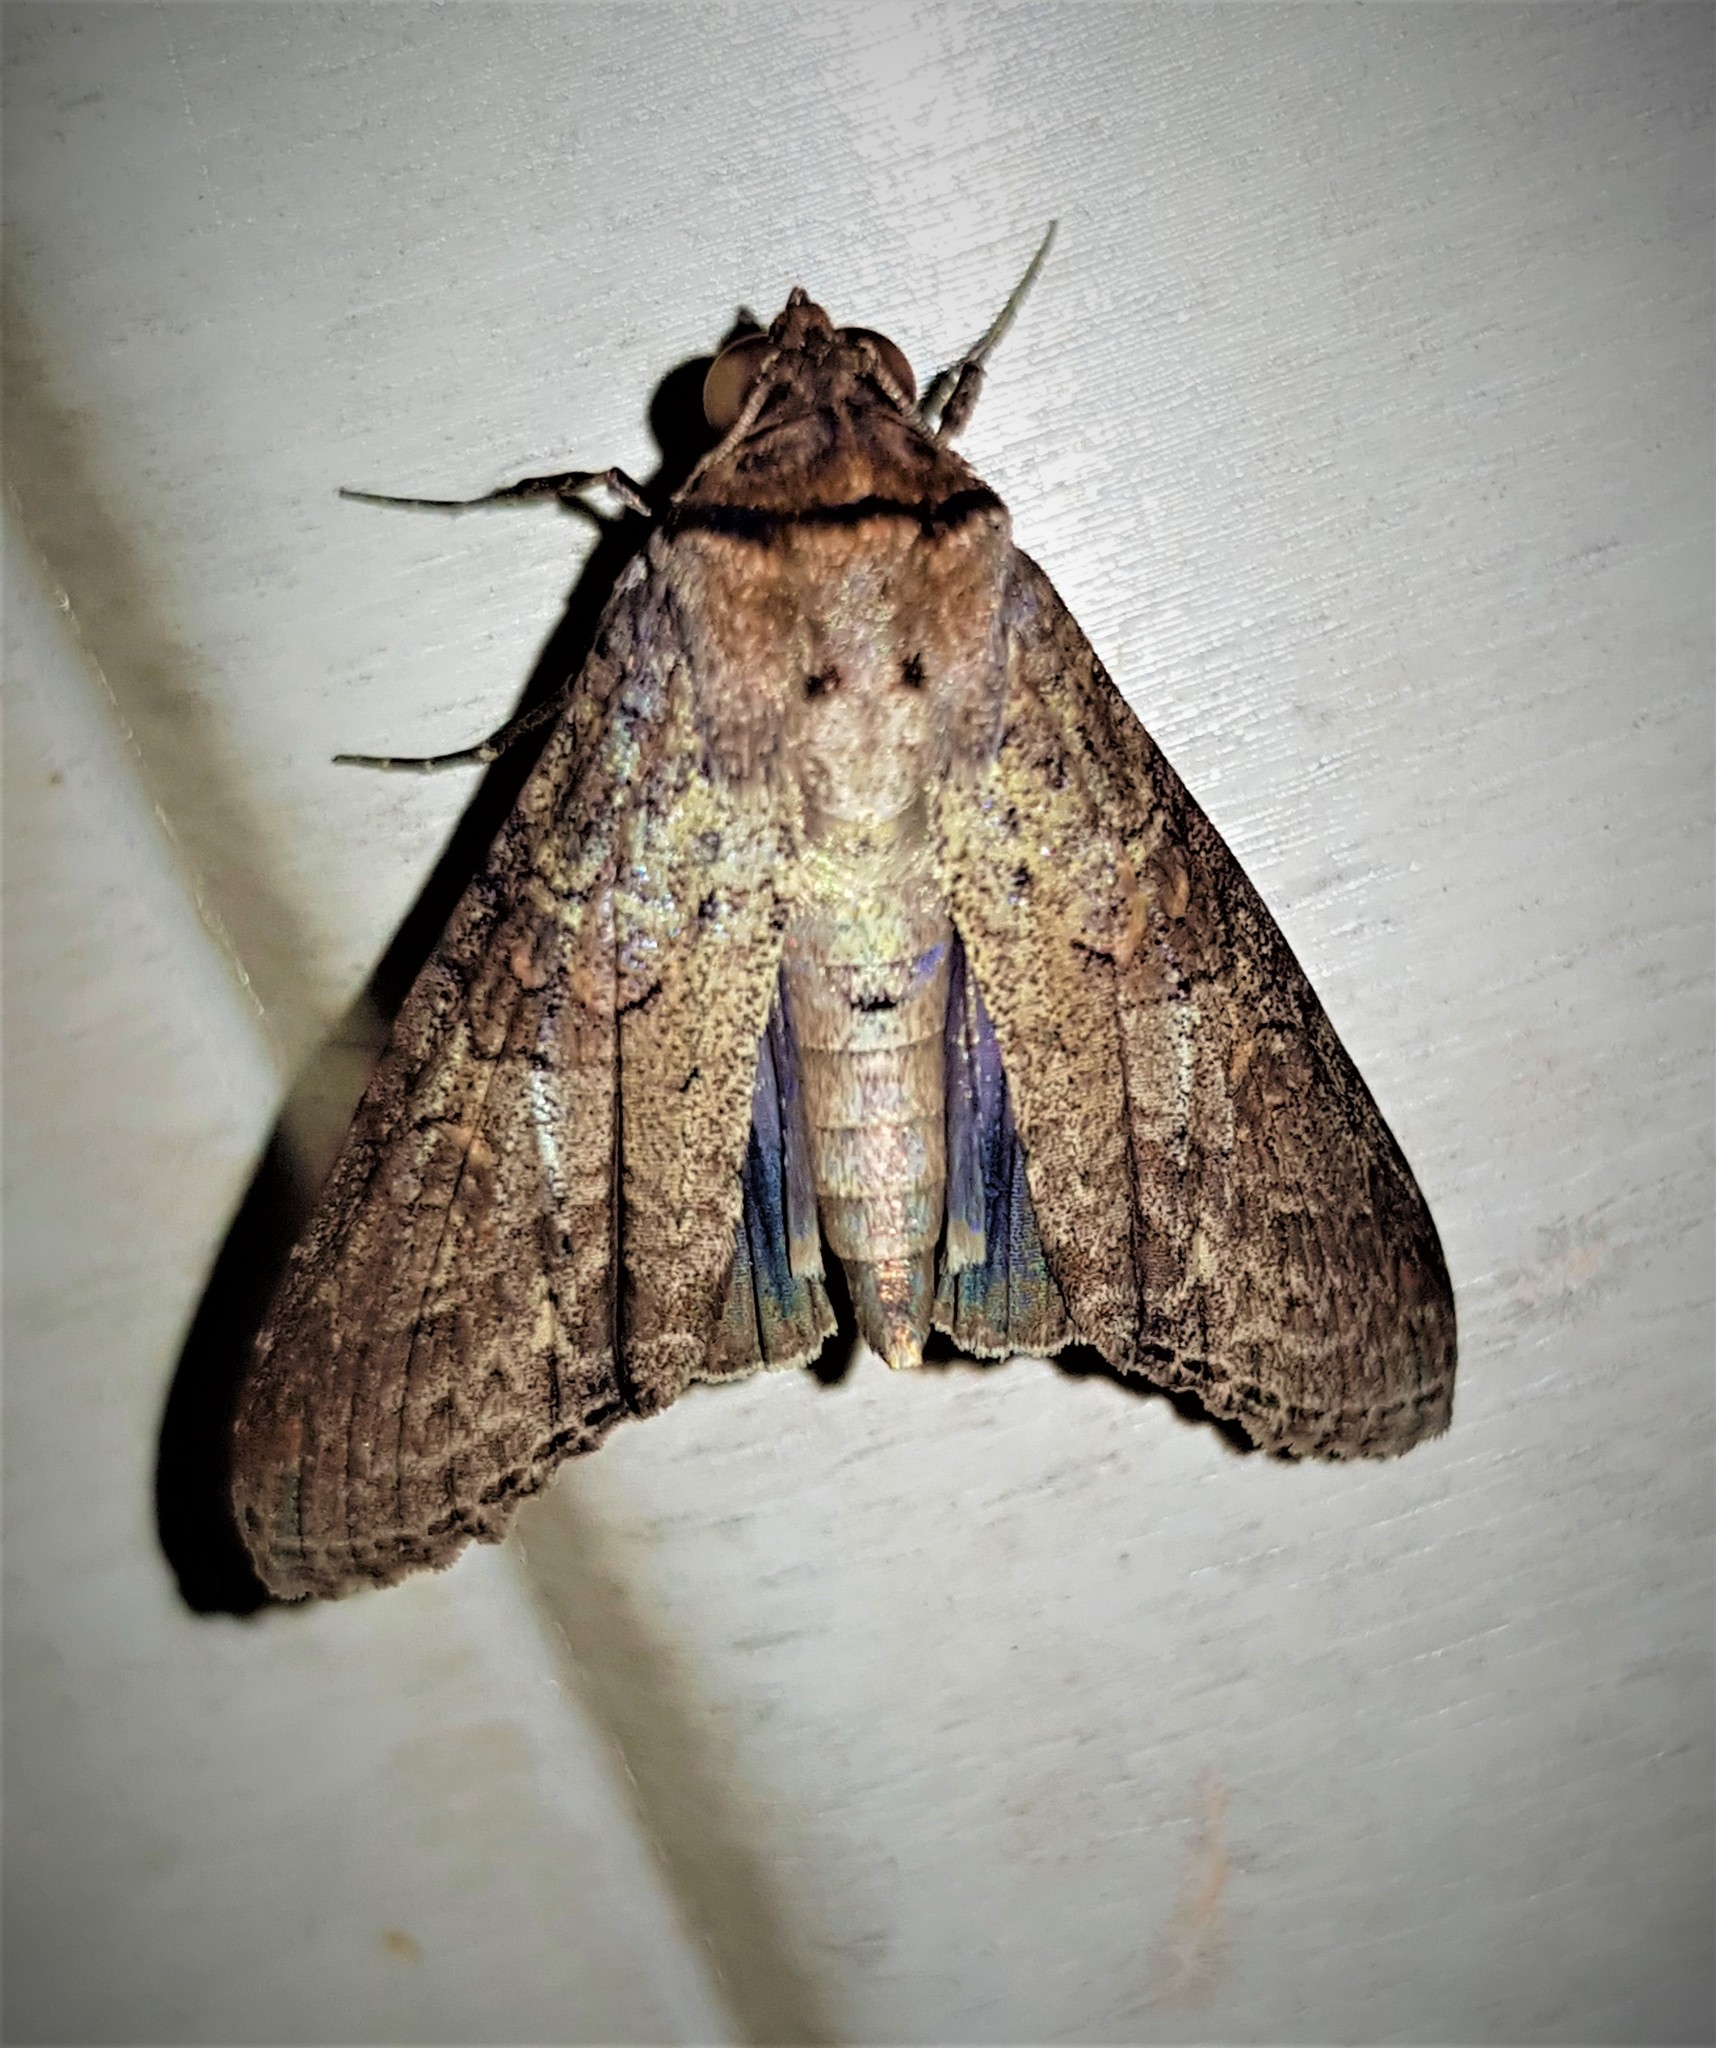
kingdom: Animalia
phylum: Arthropoda
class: Insecta
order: Lepidoptera
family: Euteliidae
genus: Stictoptera
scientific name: Stictoptera Nagara clara
